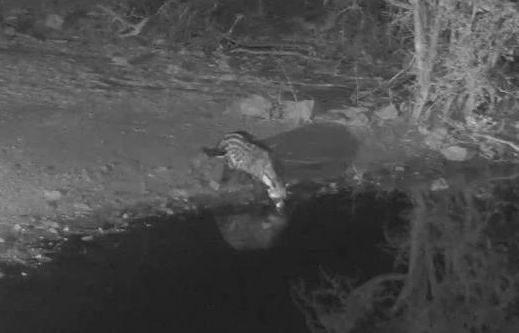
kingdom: Animalia
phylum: Chordata
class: Mammalia
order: Carnivora
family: Viverridae
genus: Civettictis
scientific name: Civettictis civetta
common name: African civet
